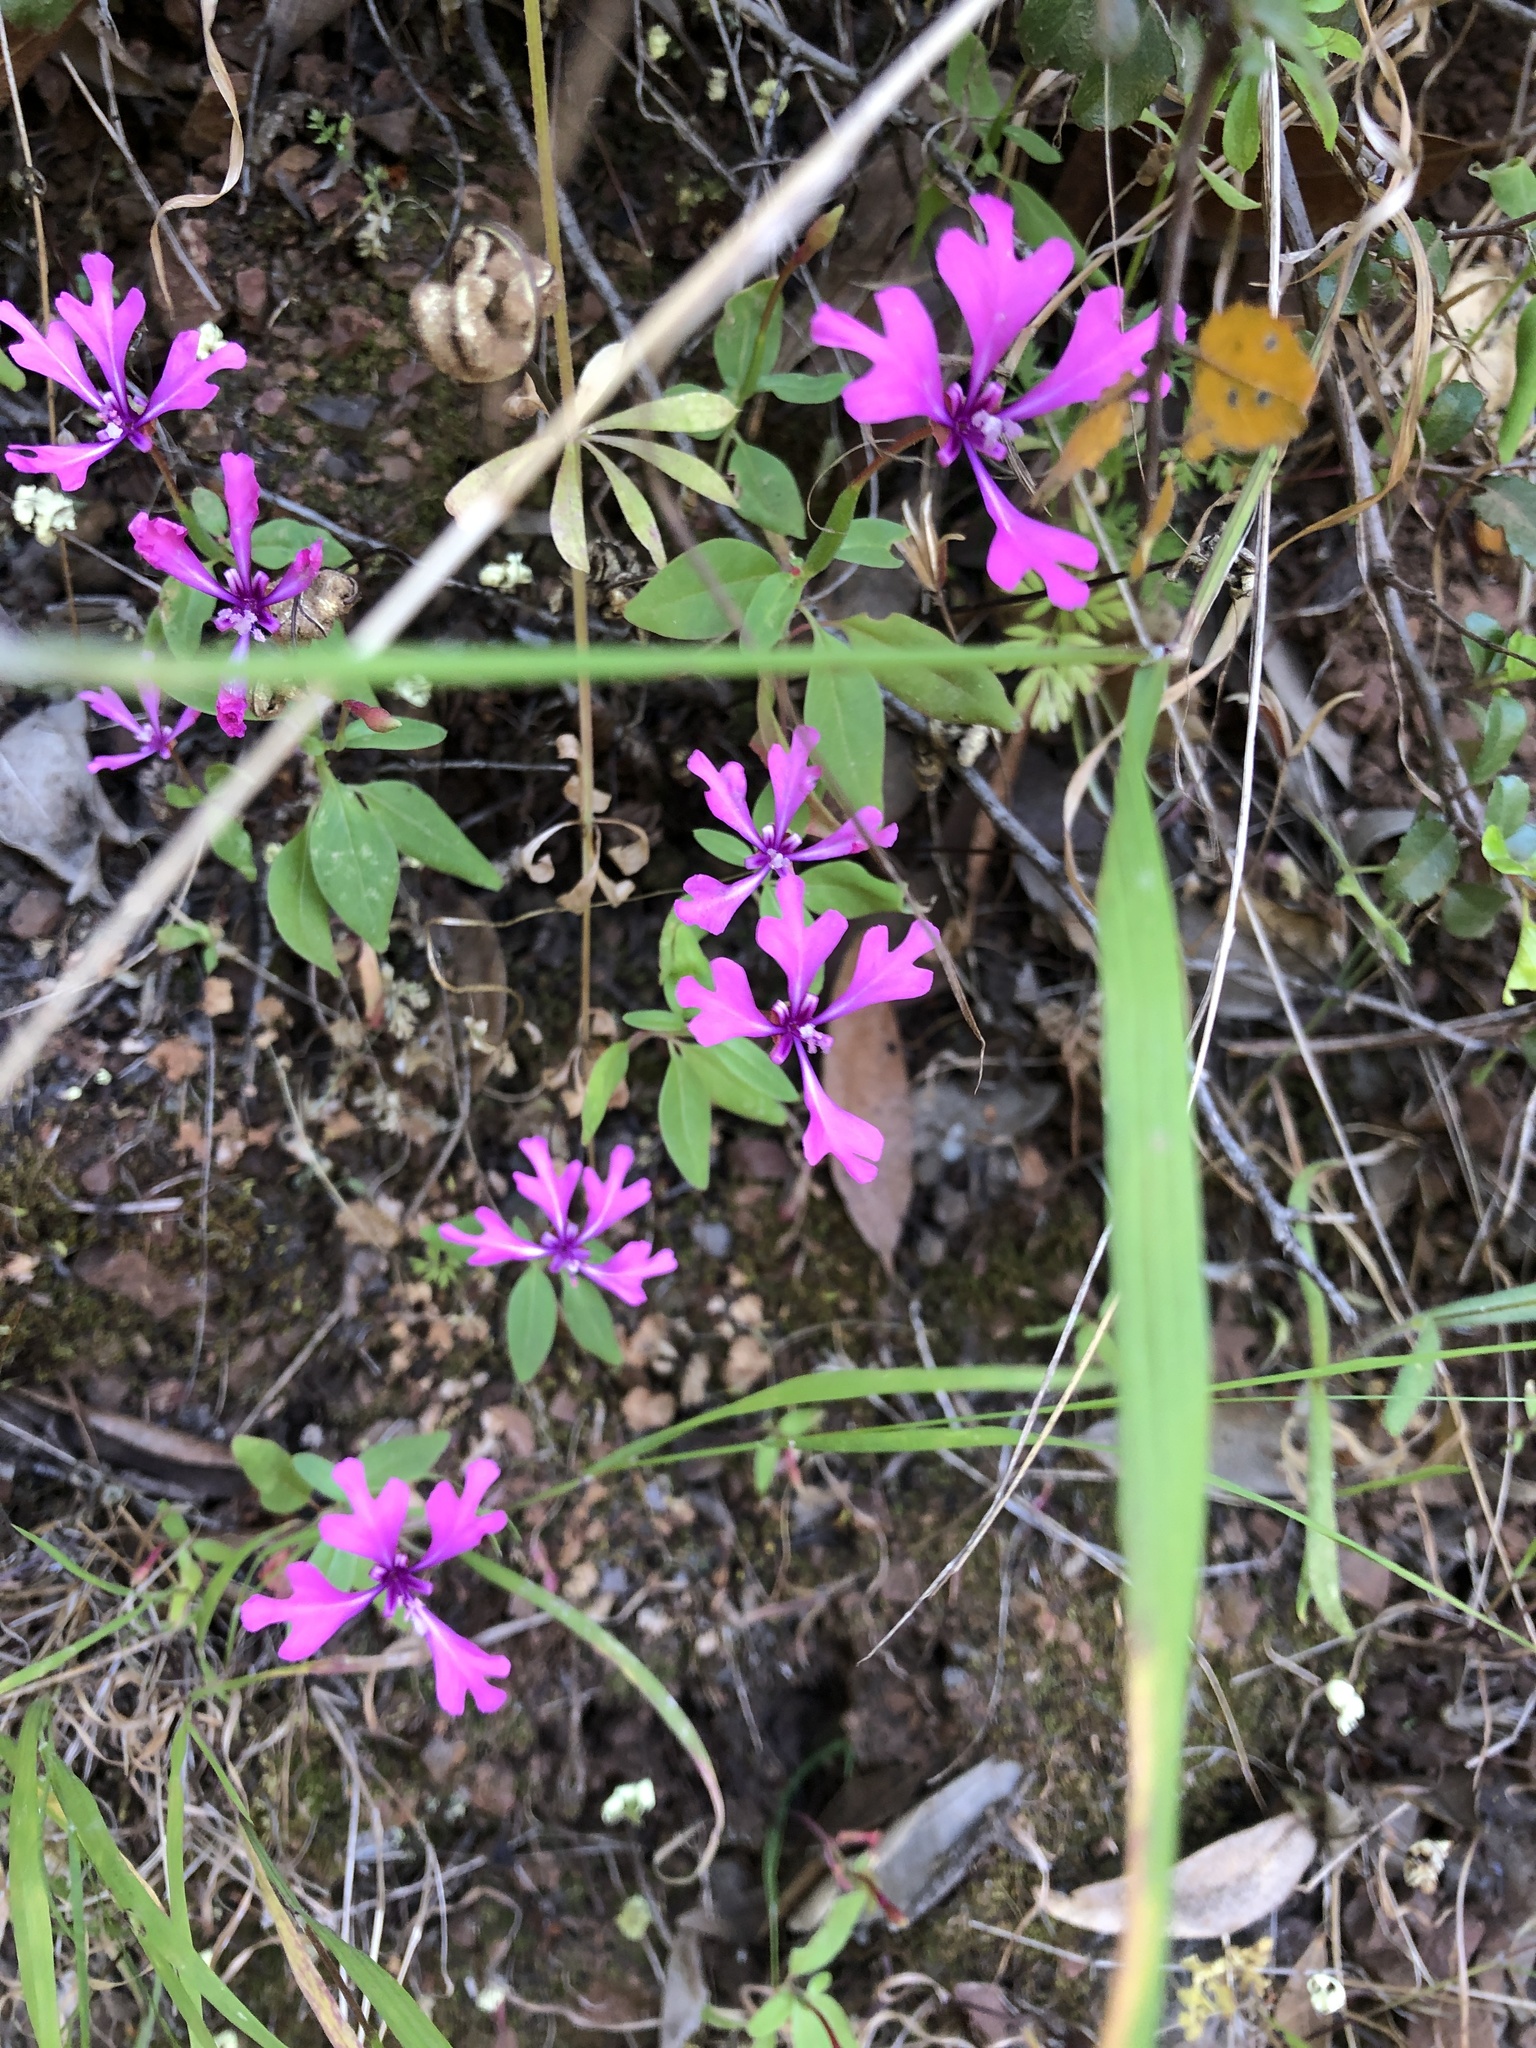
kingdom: Plantae
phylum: Tracheophyta
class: Magnoliopsida
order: Myrtales
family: Onagraceae
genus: Clarkia
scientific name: Clarkia concinna
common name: Red-ribbons
